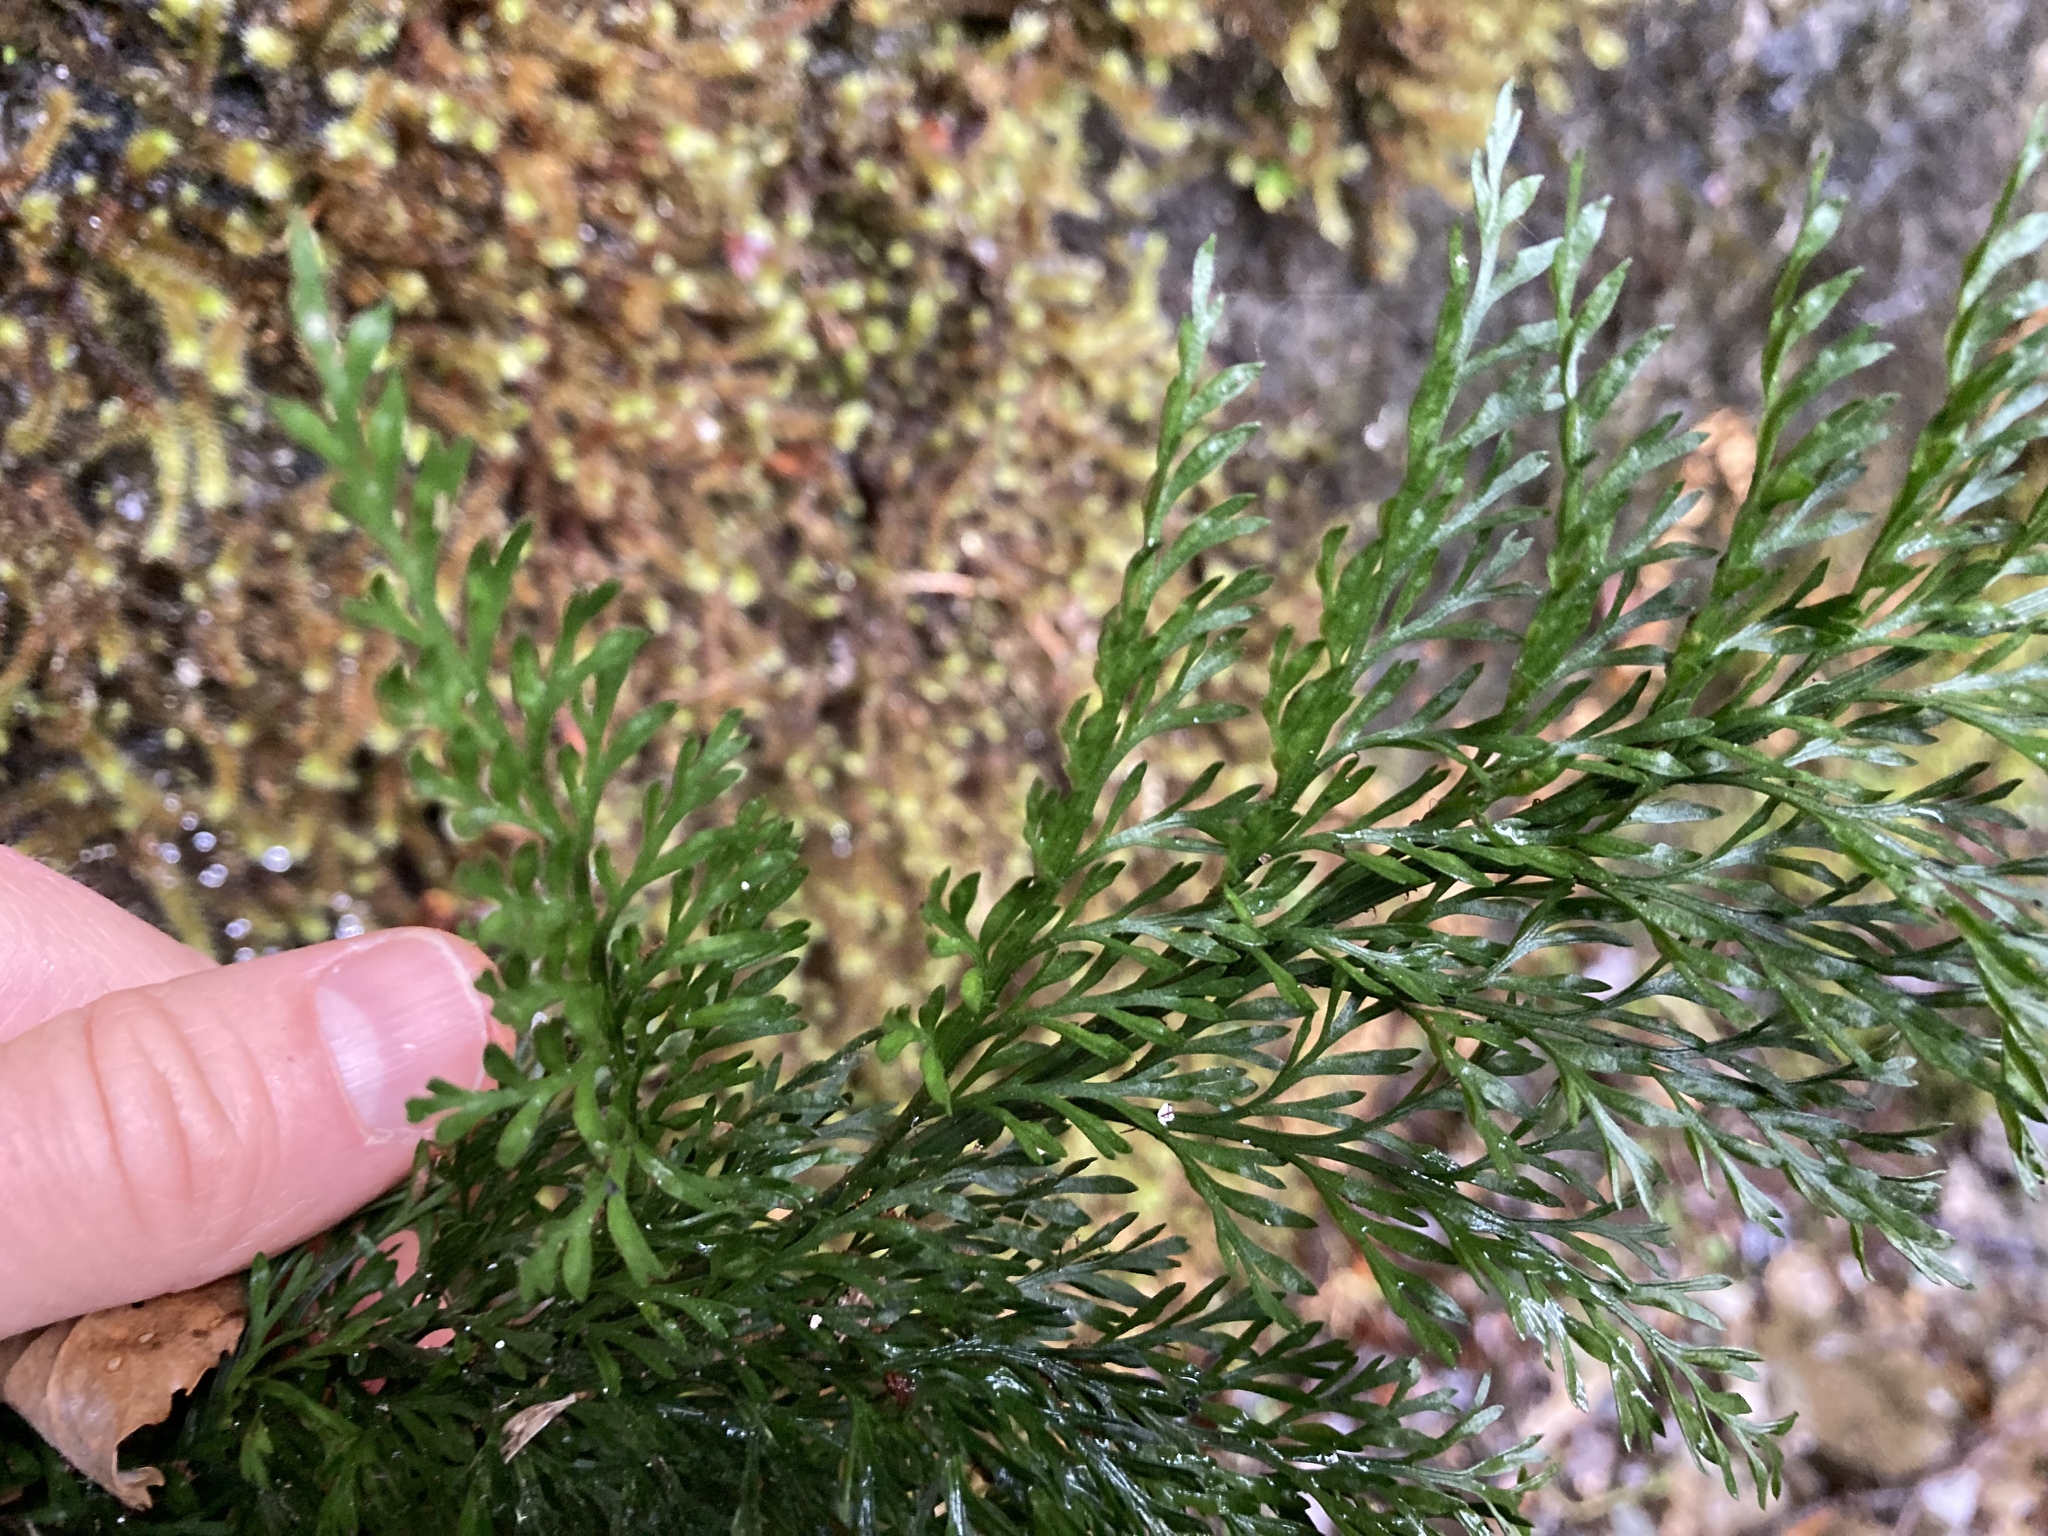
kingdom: Plantae
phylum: Tracheophyta
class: Polypodiopsida
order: Polypodiales
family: Aspleniaceae
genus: Asplenium
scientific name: Asplenium richardii
